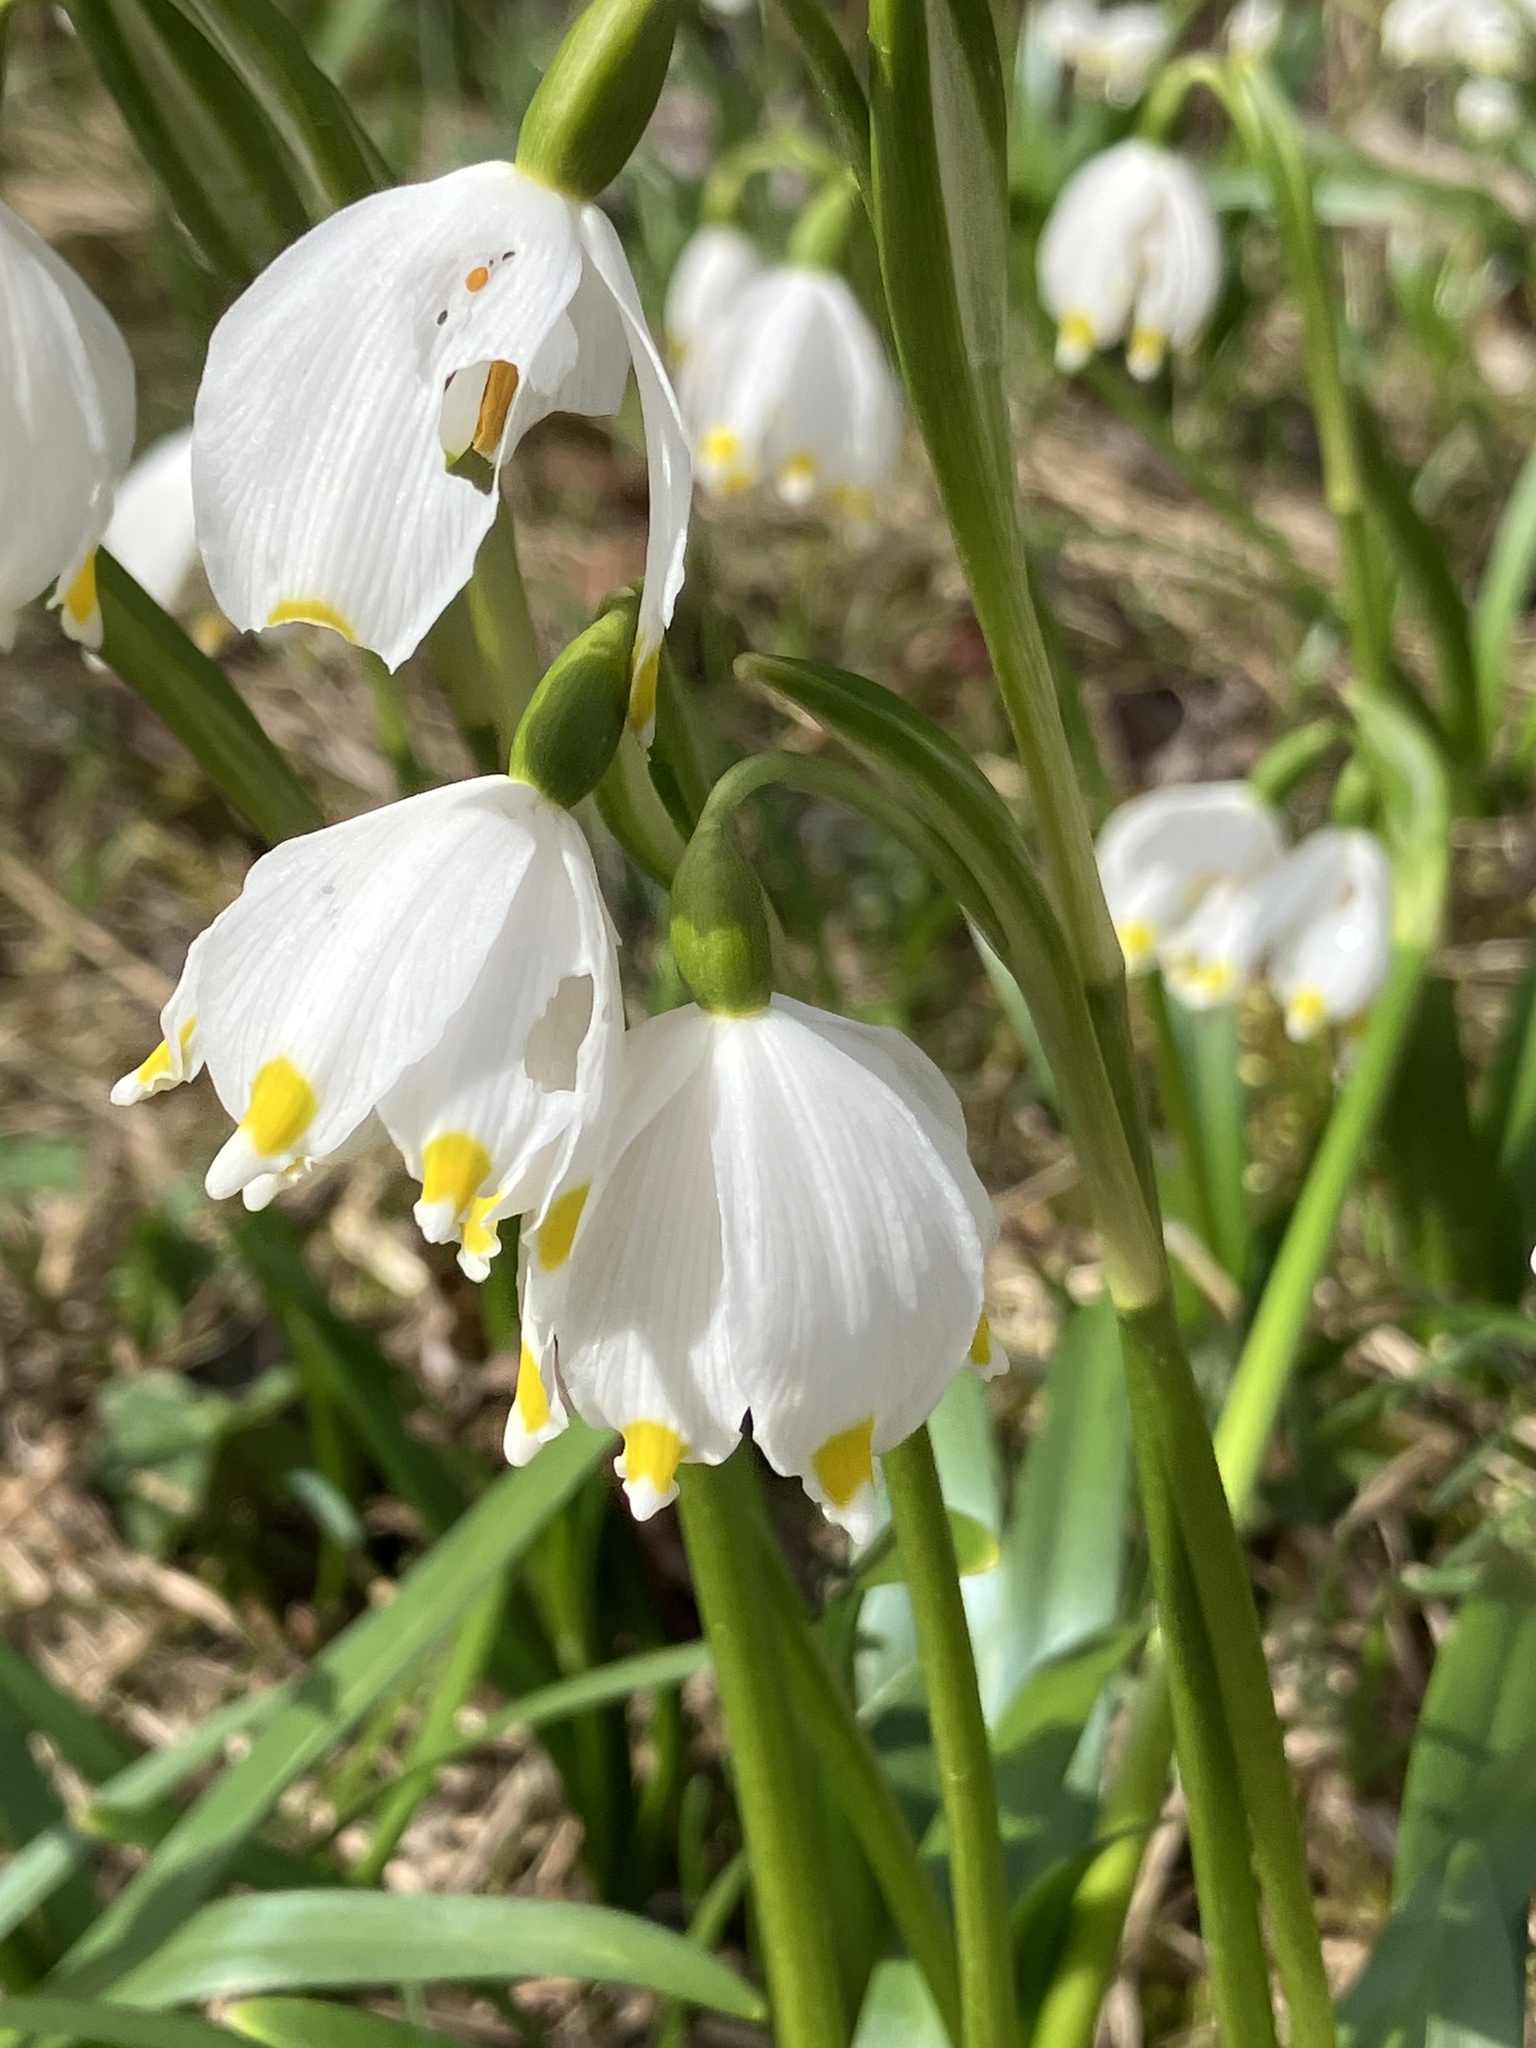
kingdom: Plantae
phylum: Tracheophyta
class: Liliopsida
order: Asparagales
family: Amaryllidaceae
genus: Leucojum
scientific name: Leucojum vernum
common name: Spring snowflake
